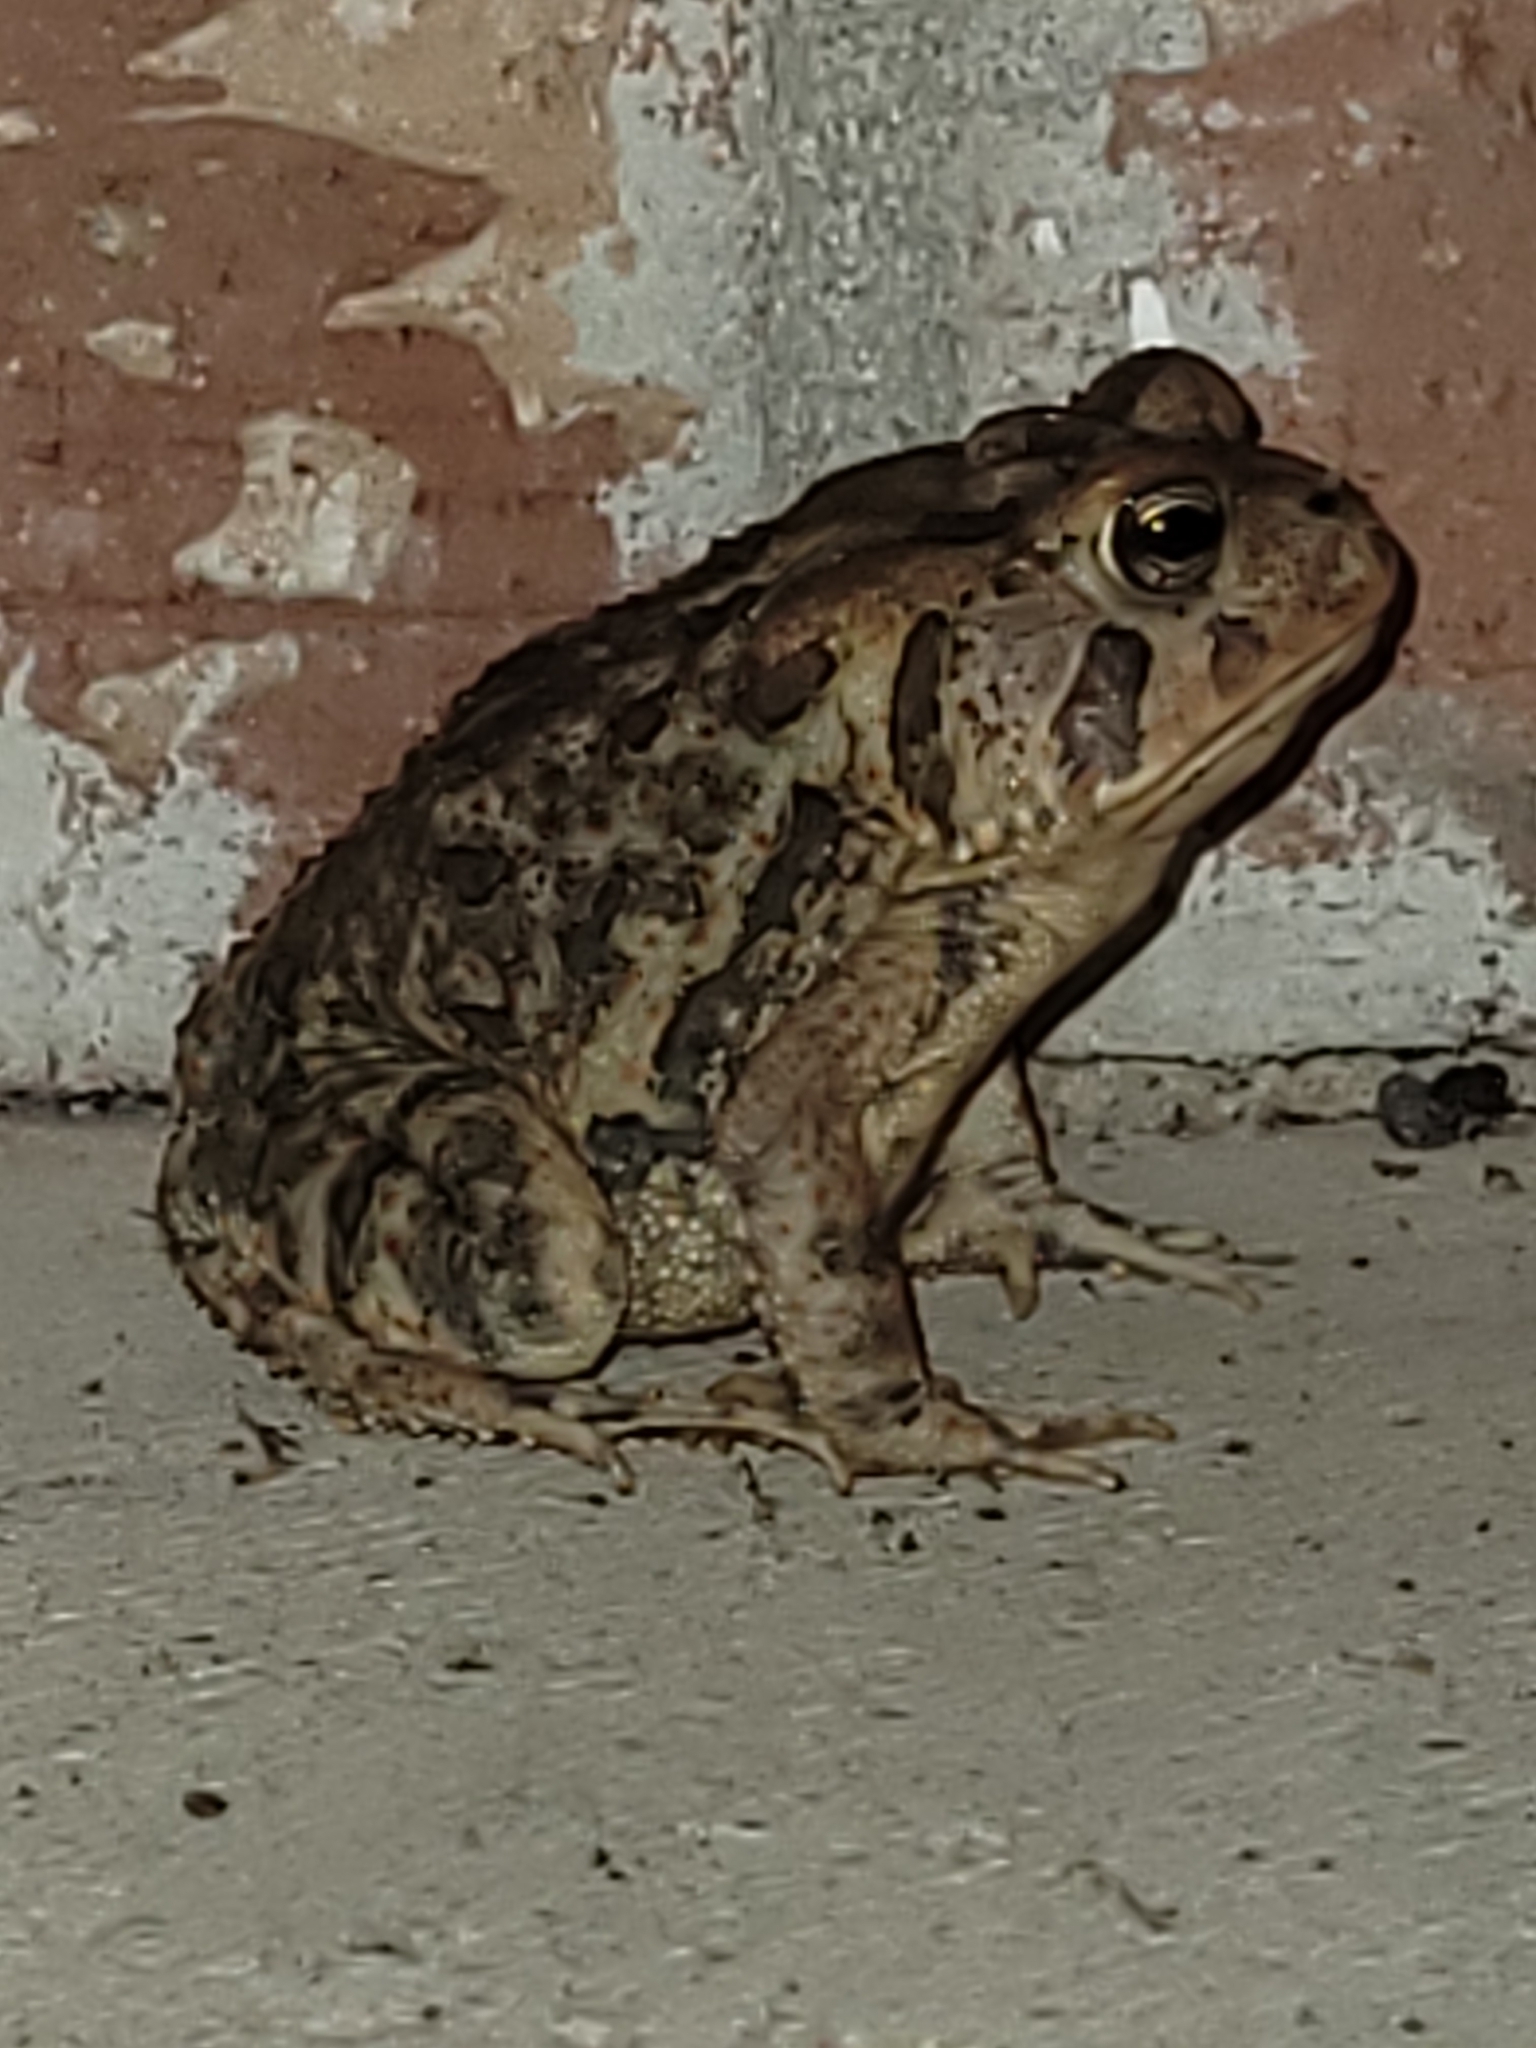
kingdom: Animalia
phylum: Chordata
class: Amphibia
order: Anura
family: Bufonidae
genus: Anaxyrus
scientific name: Anaxyrus terrestris
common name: Southern toad
